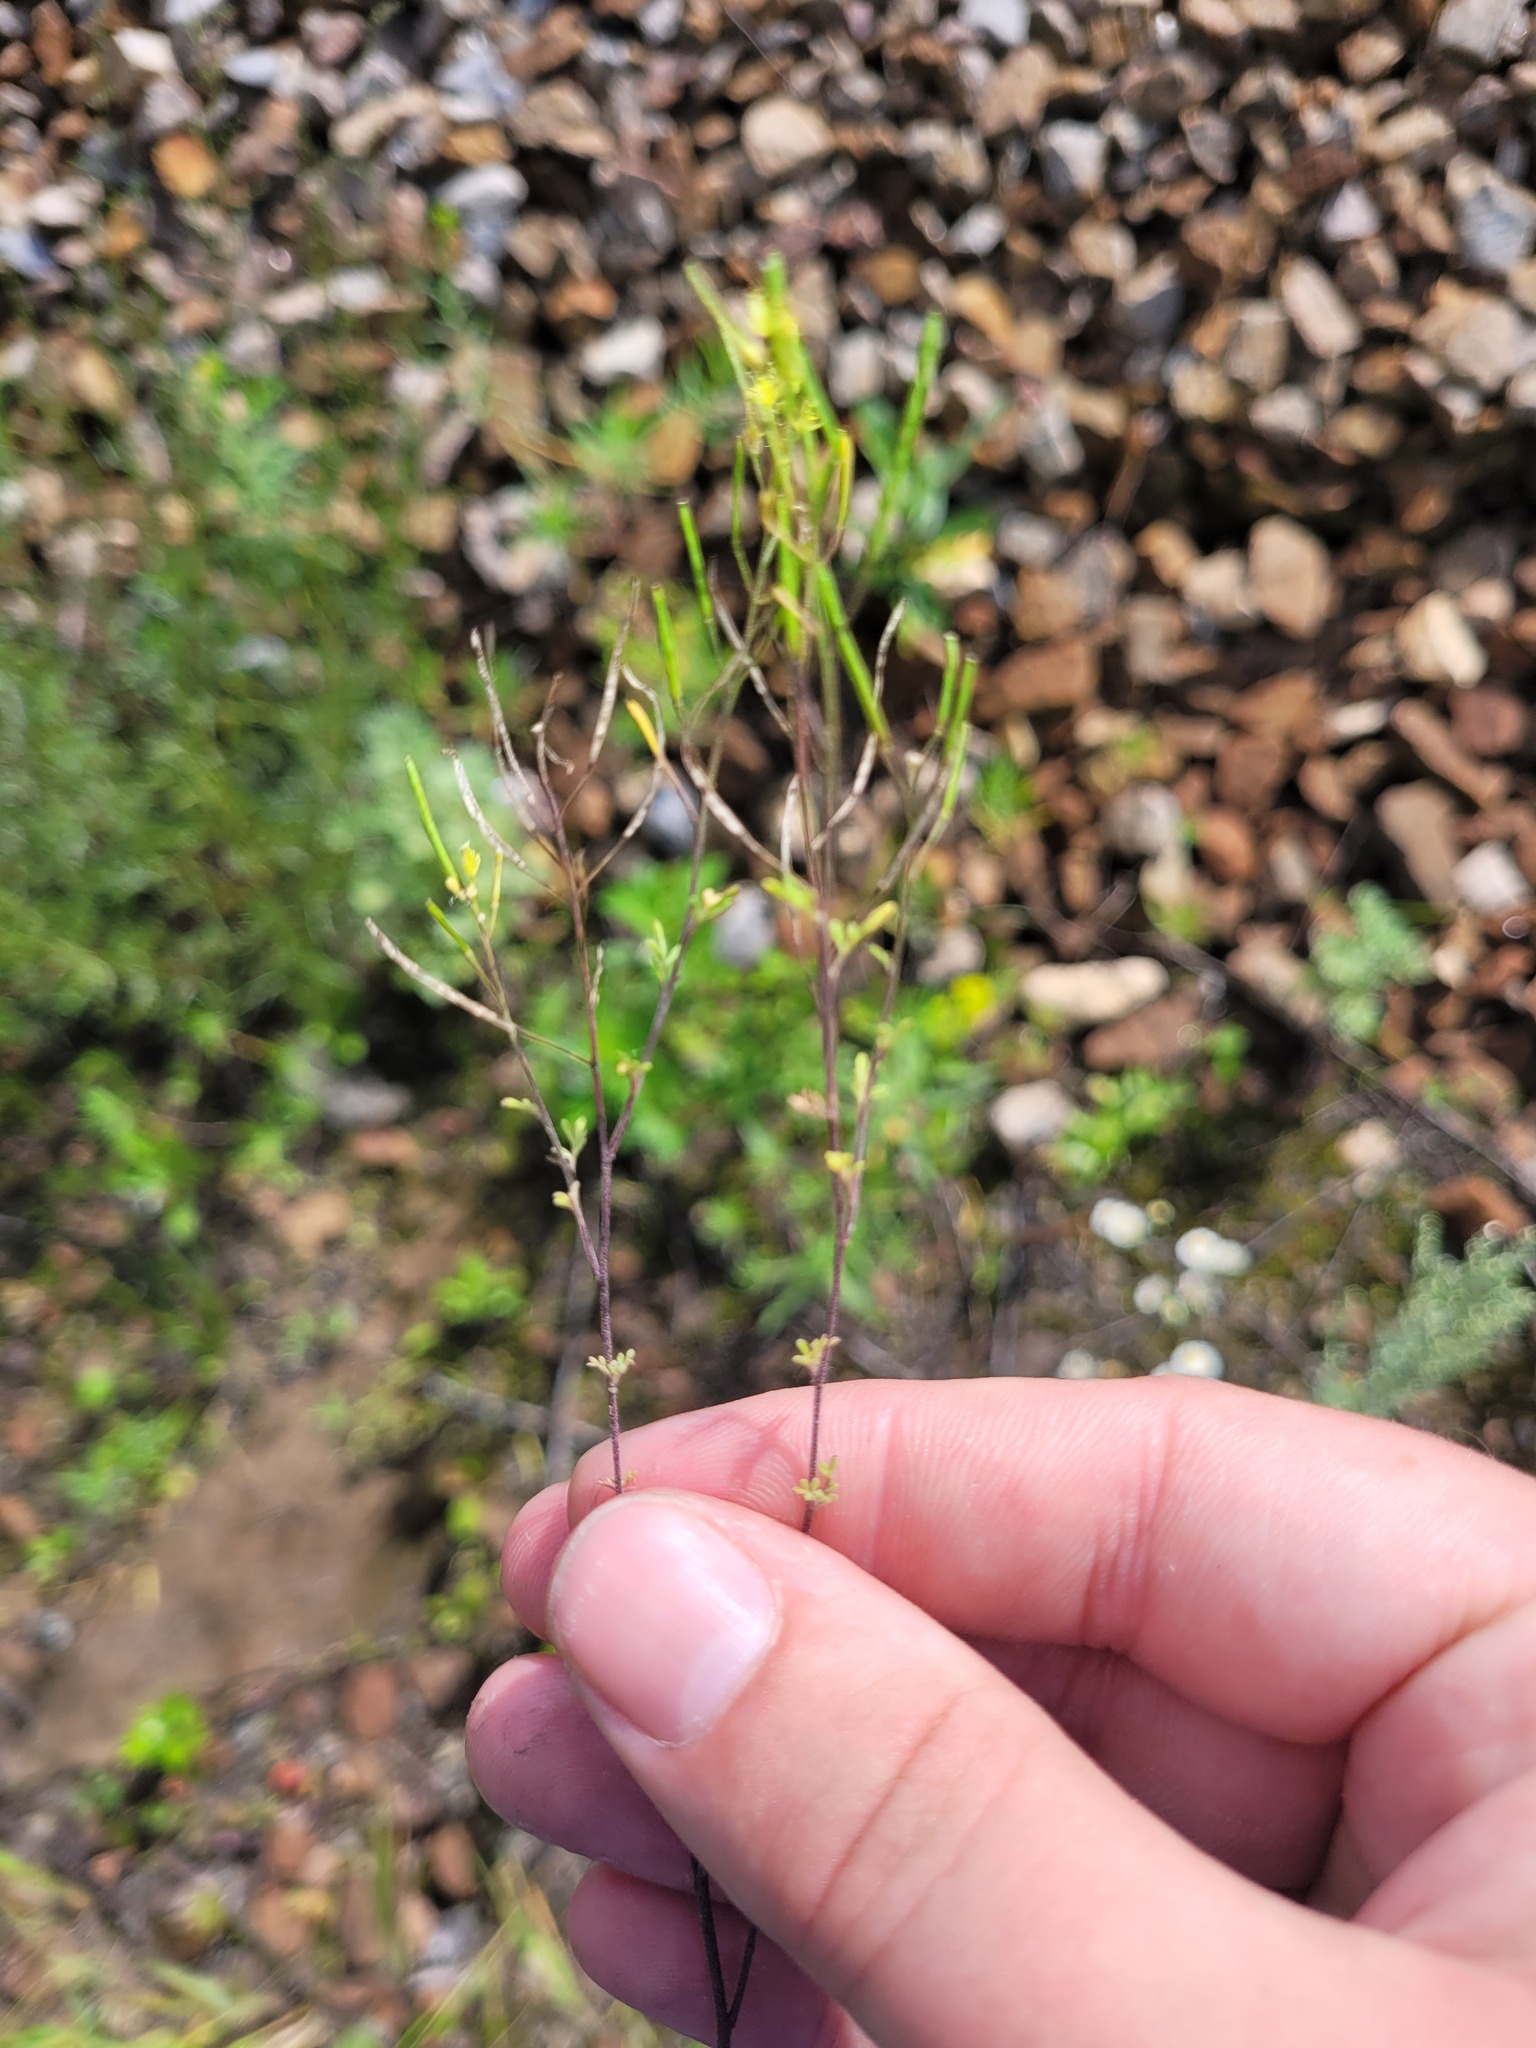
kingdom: Plantae
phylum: Tracheophyta
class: Magnoliopsida
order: Brassicales
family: Brassicaceae
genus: Descurainia
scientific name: Descurainia sophia
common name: Flixweed
